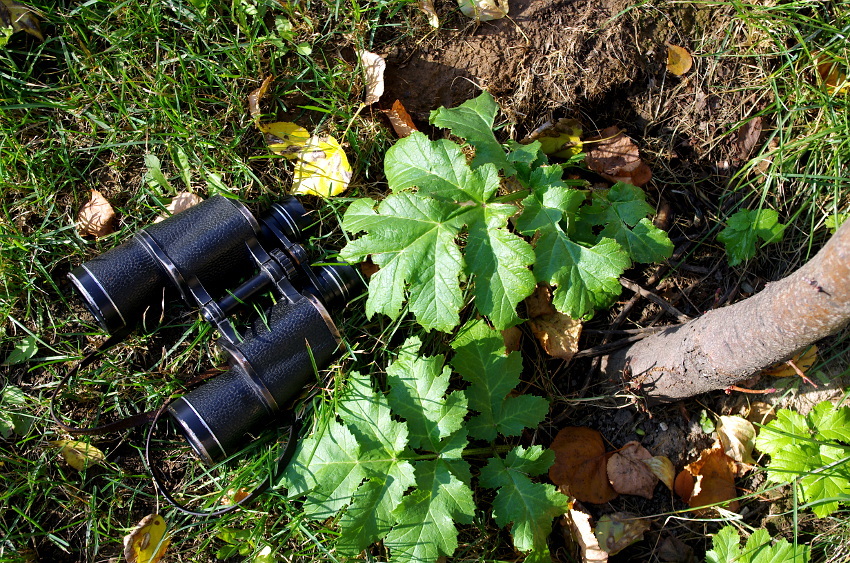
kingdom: Plantae
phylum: Tracheophyta
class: Magnoliopsida
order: Apiales
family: Apiaceae
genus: Heracleum
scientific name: Heracleum sosnowskyi
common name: Sosnowsky's hogweed
